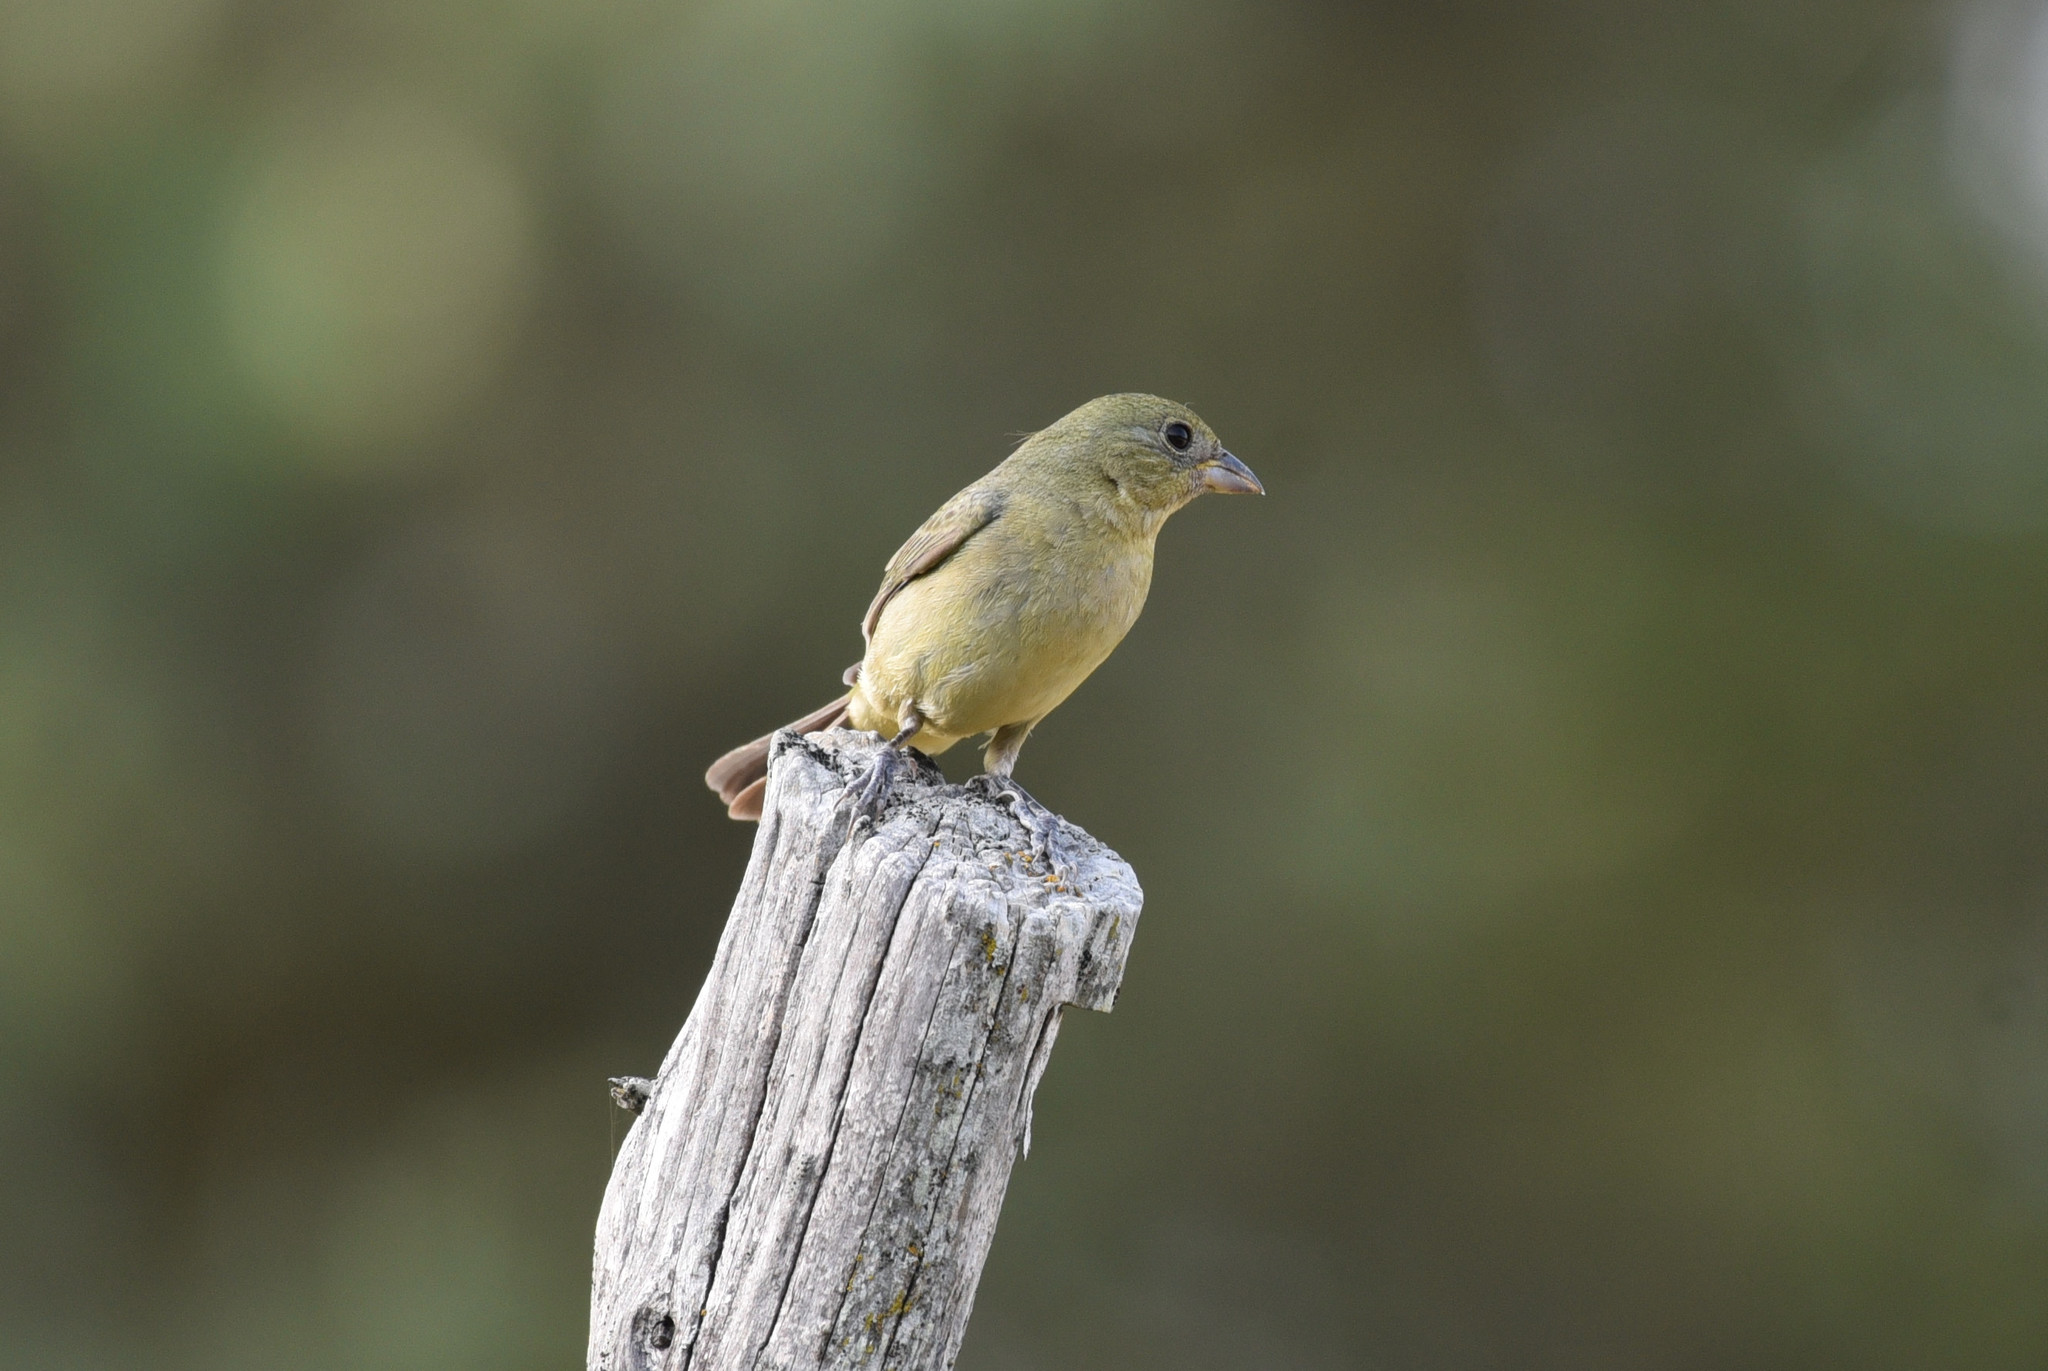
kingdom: Animalia
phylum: Chordata
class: Aves
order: Passeriformes
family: Cardinalidae
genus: Passerina
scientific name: Passerina ciris
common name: Painted bunting
